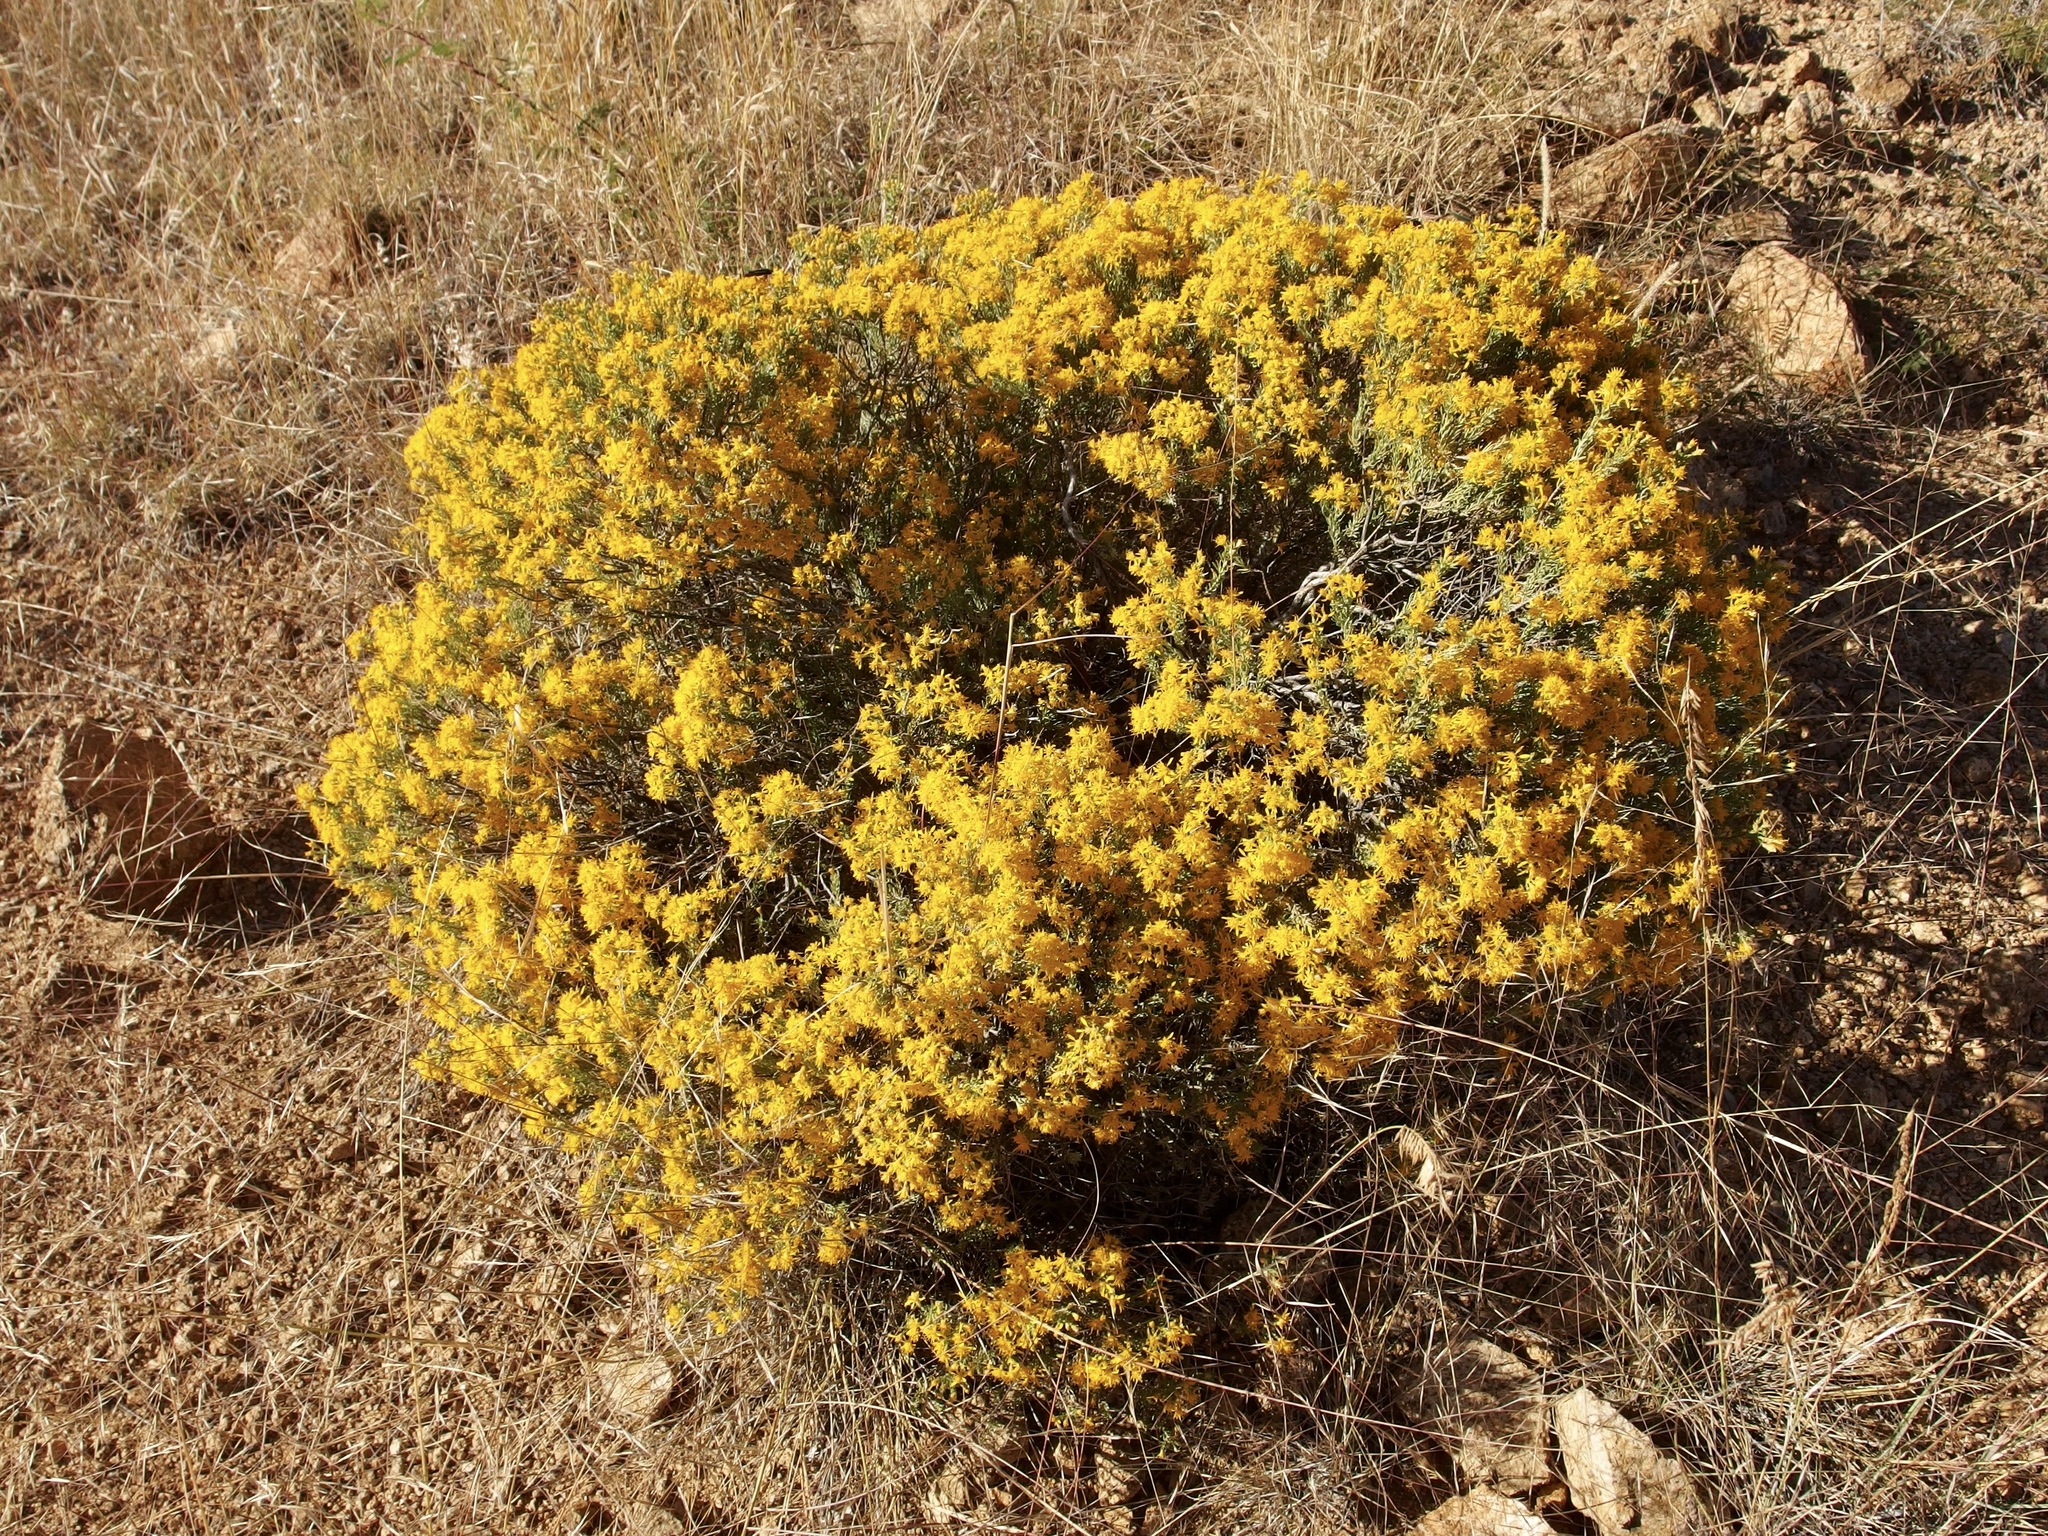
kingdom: Plantae
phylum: Tracheophyta
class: Magnoliopsida
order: Asterales
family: Asteraceae
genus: Ericameria
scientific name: Ericameria laricifolia
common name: Turpentine-bush
